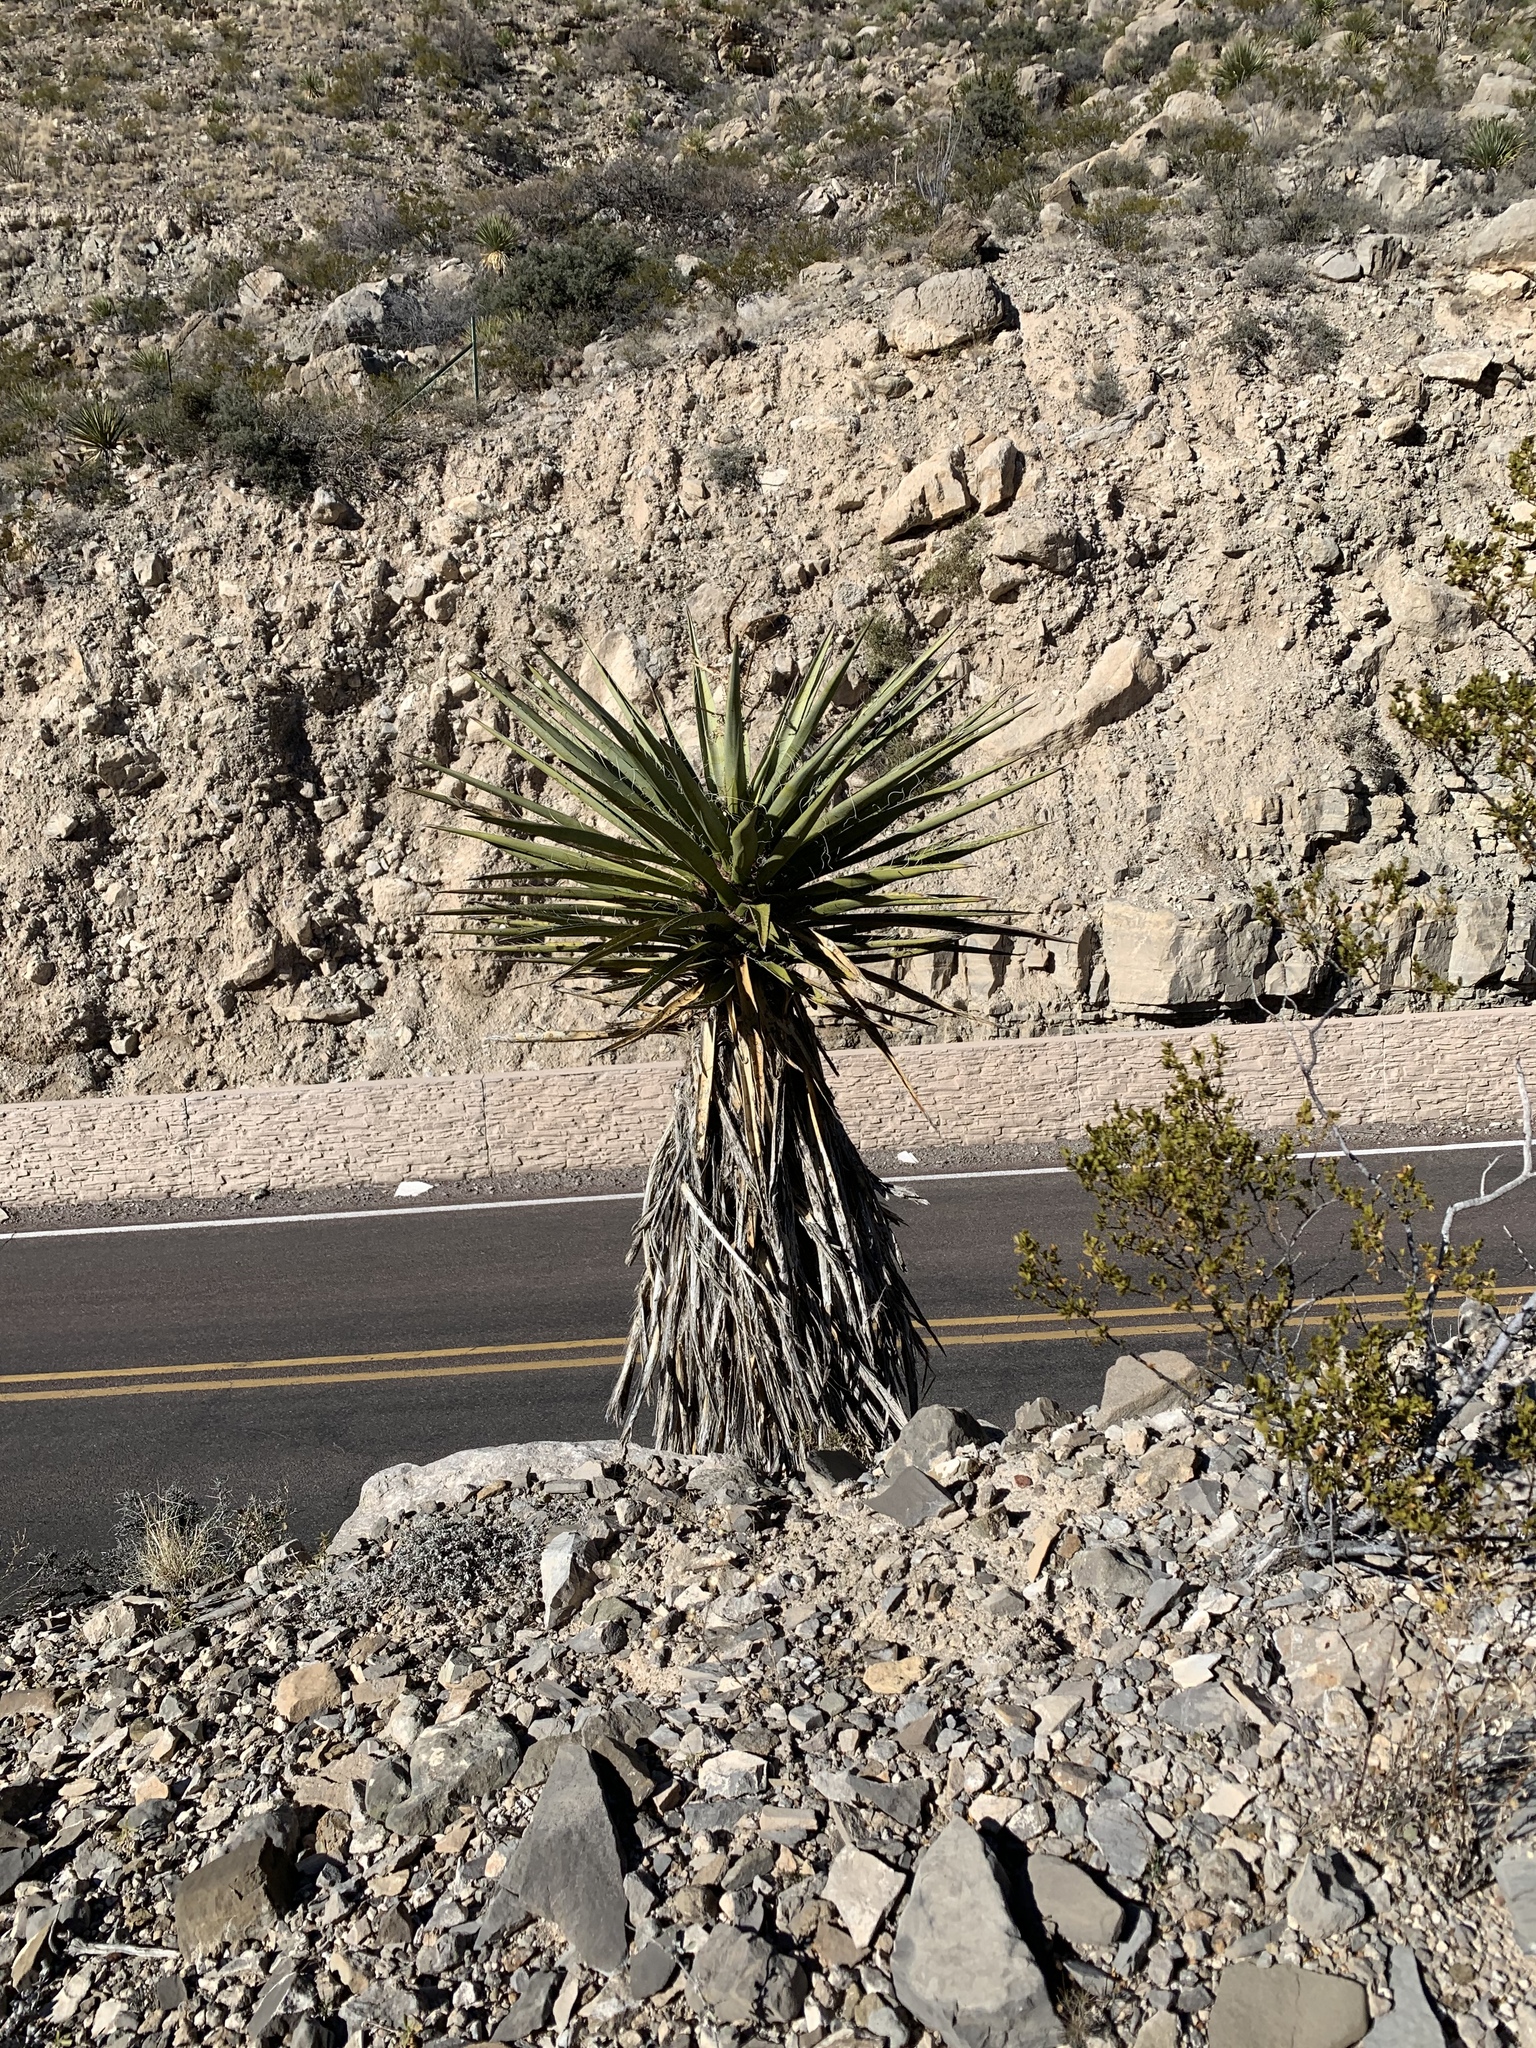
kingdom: Plantae
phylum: Tracheophyta
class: Liliopsida
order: Asparagales
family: Asparagaceae
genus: Yucca
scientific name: Yucca treculiana
